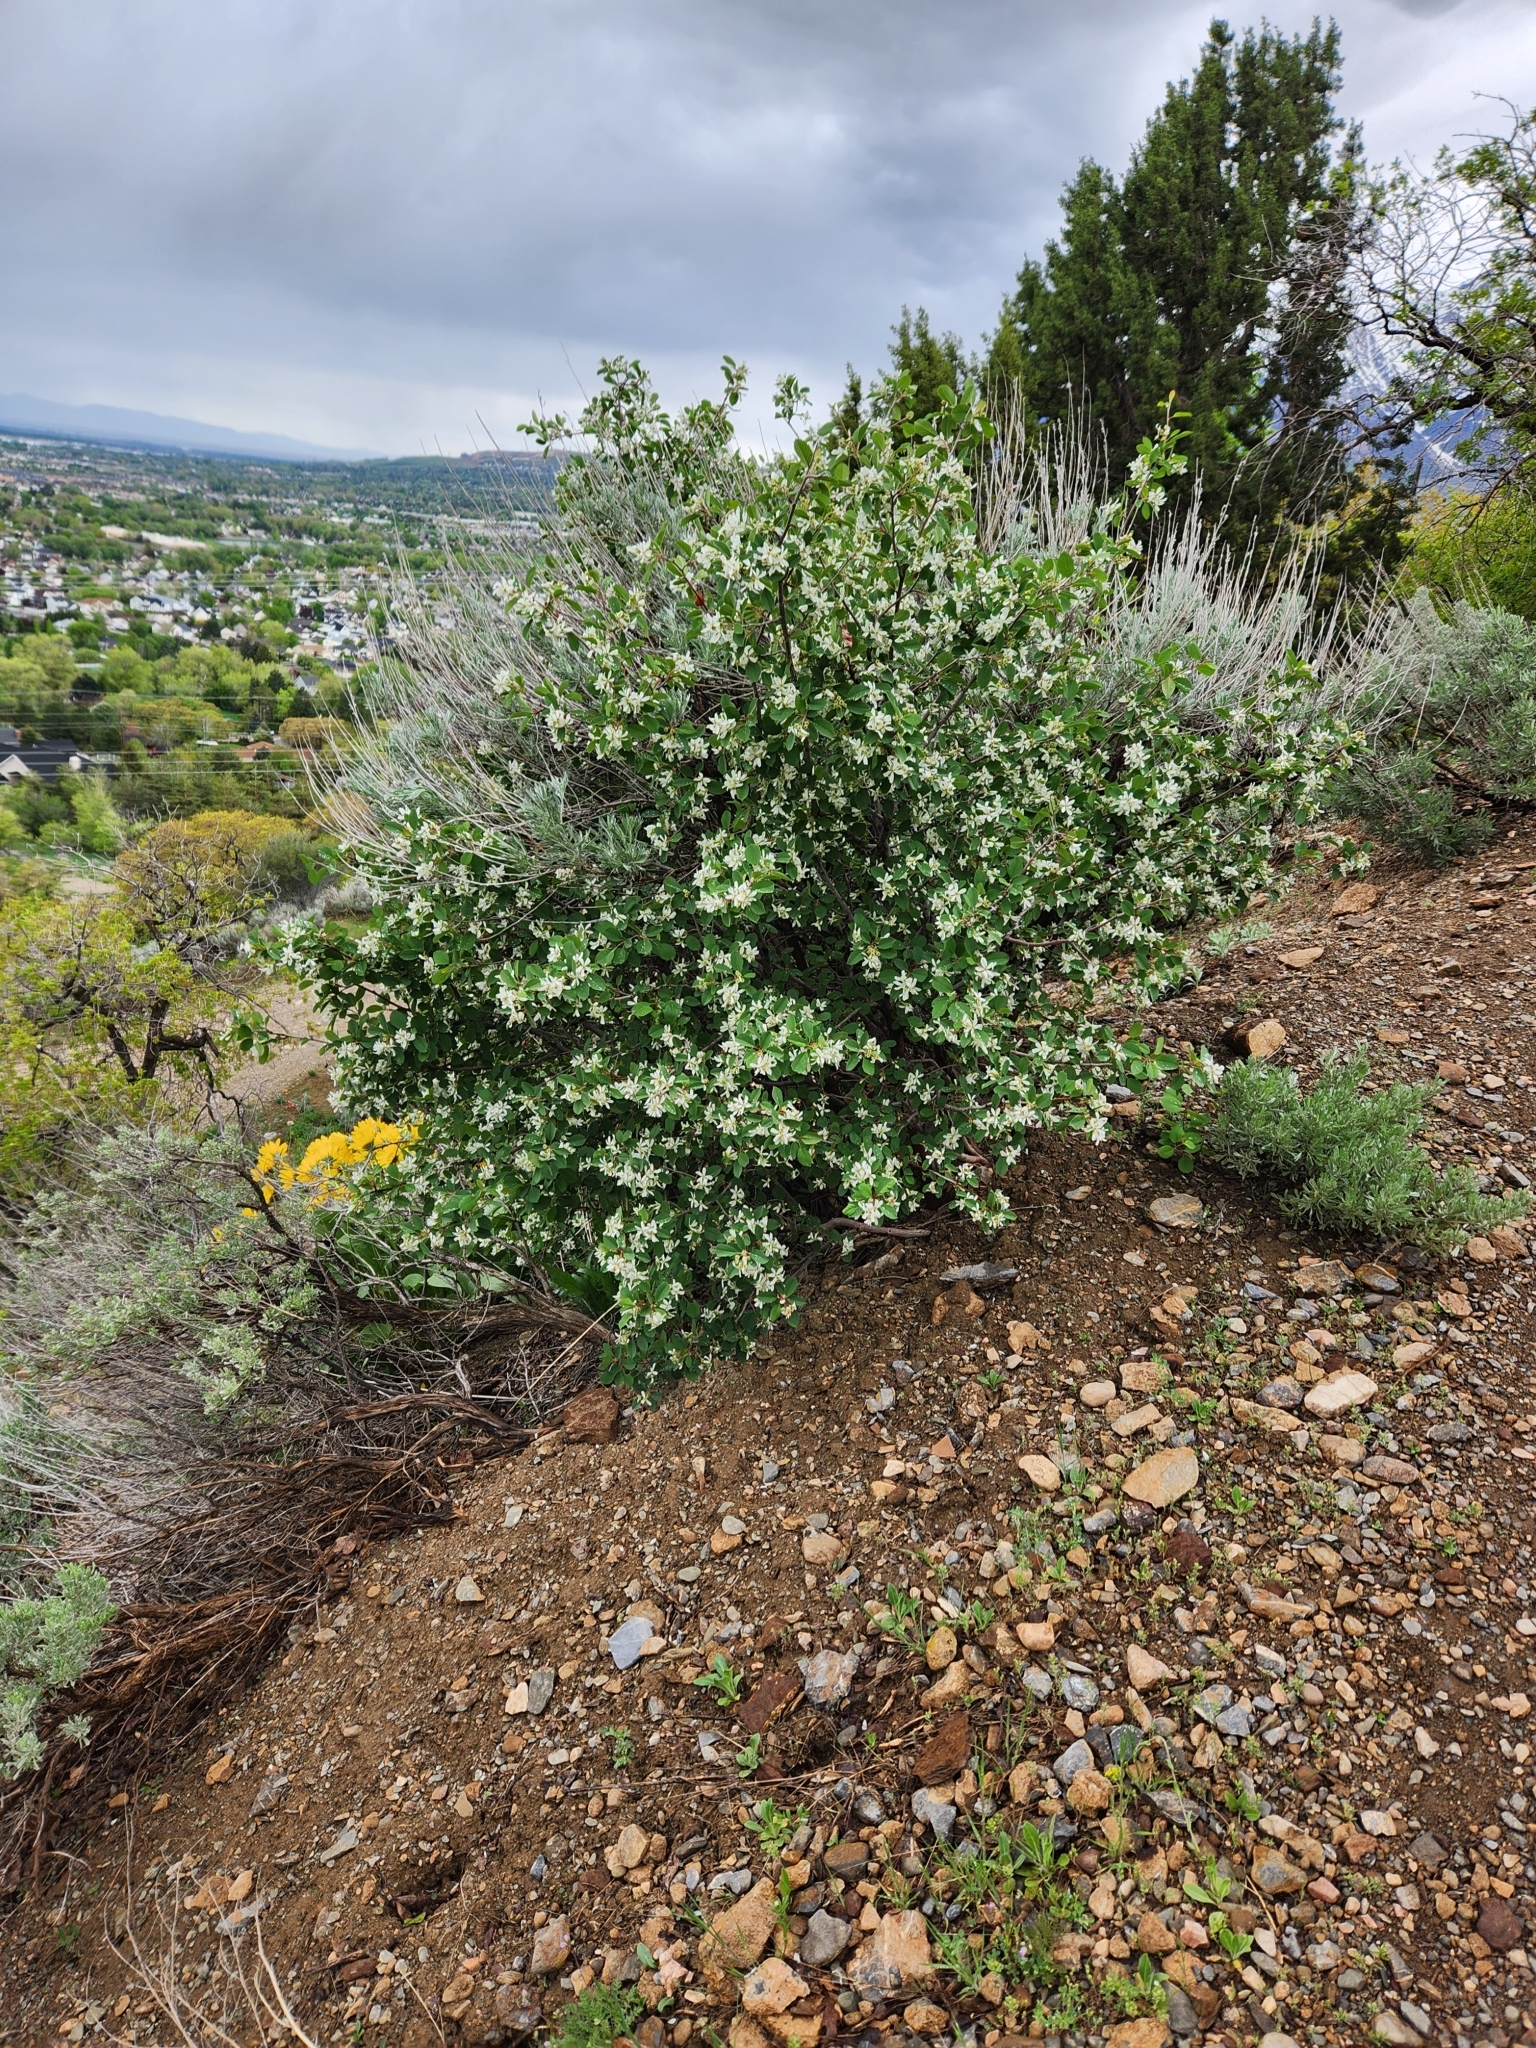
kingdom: Plantae
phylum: Tracheophyta
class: Magnoliopsida
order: Rosales
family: Rosaceae
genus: Amelanchier
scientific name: Amelanchier utahensis
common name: Utah serviceberry
